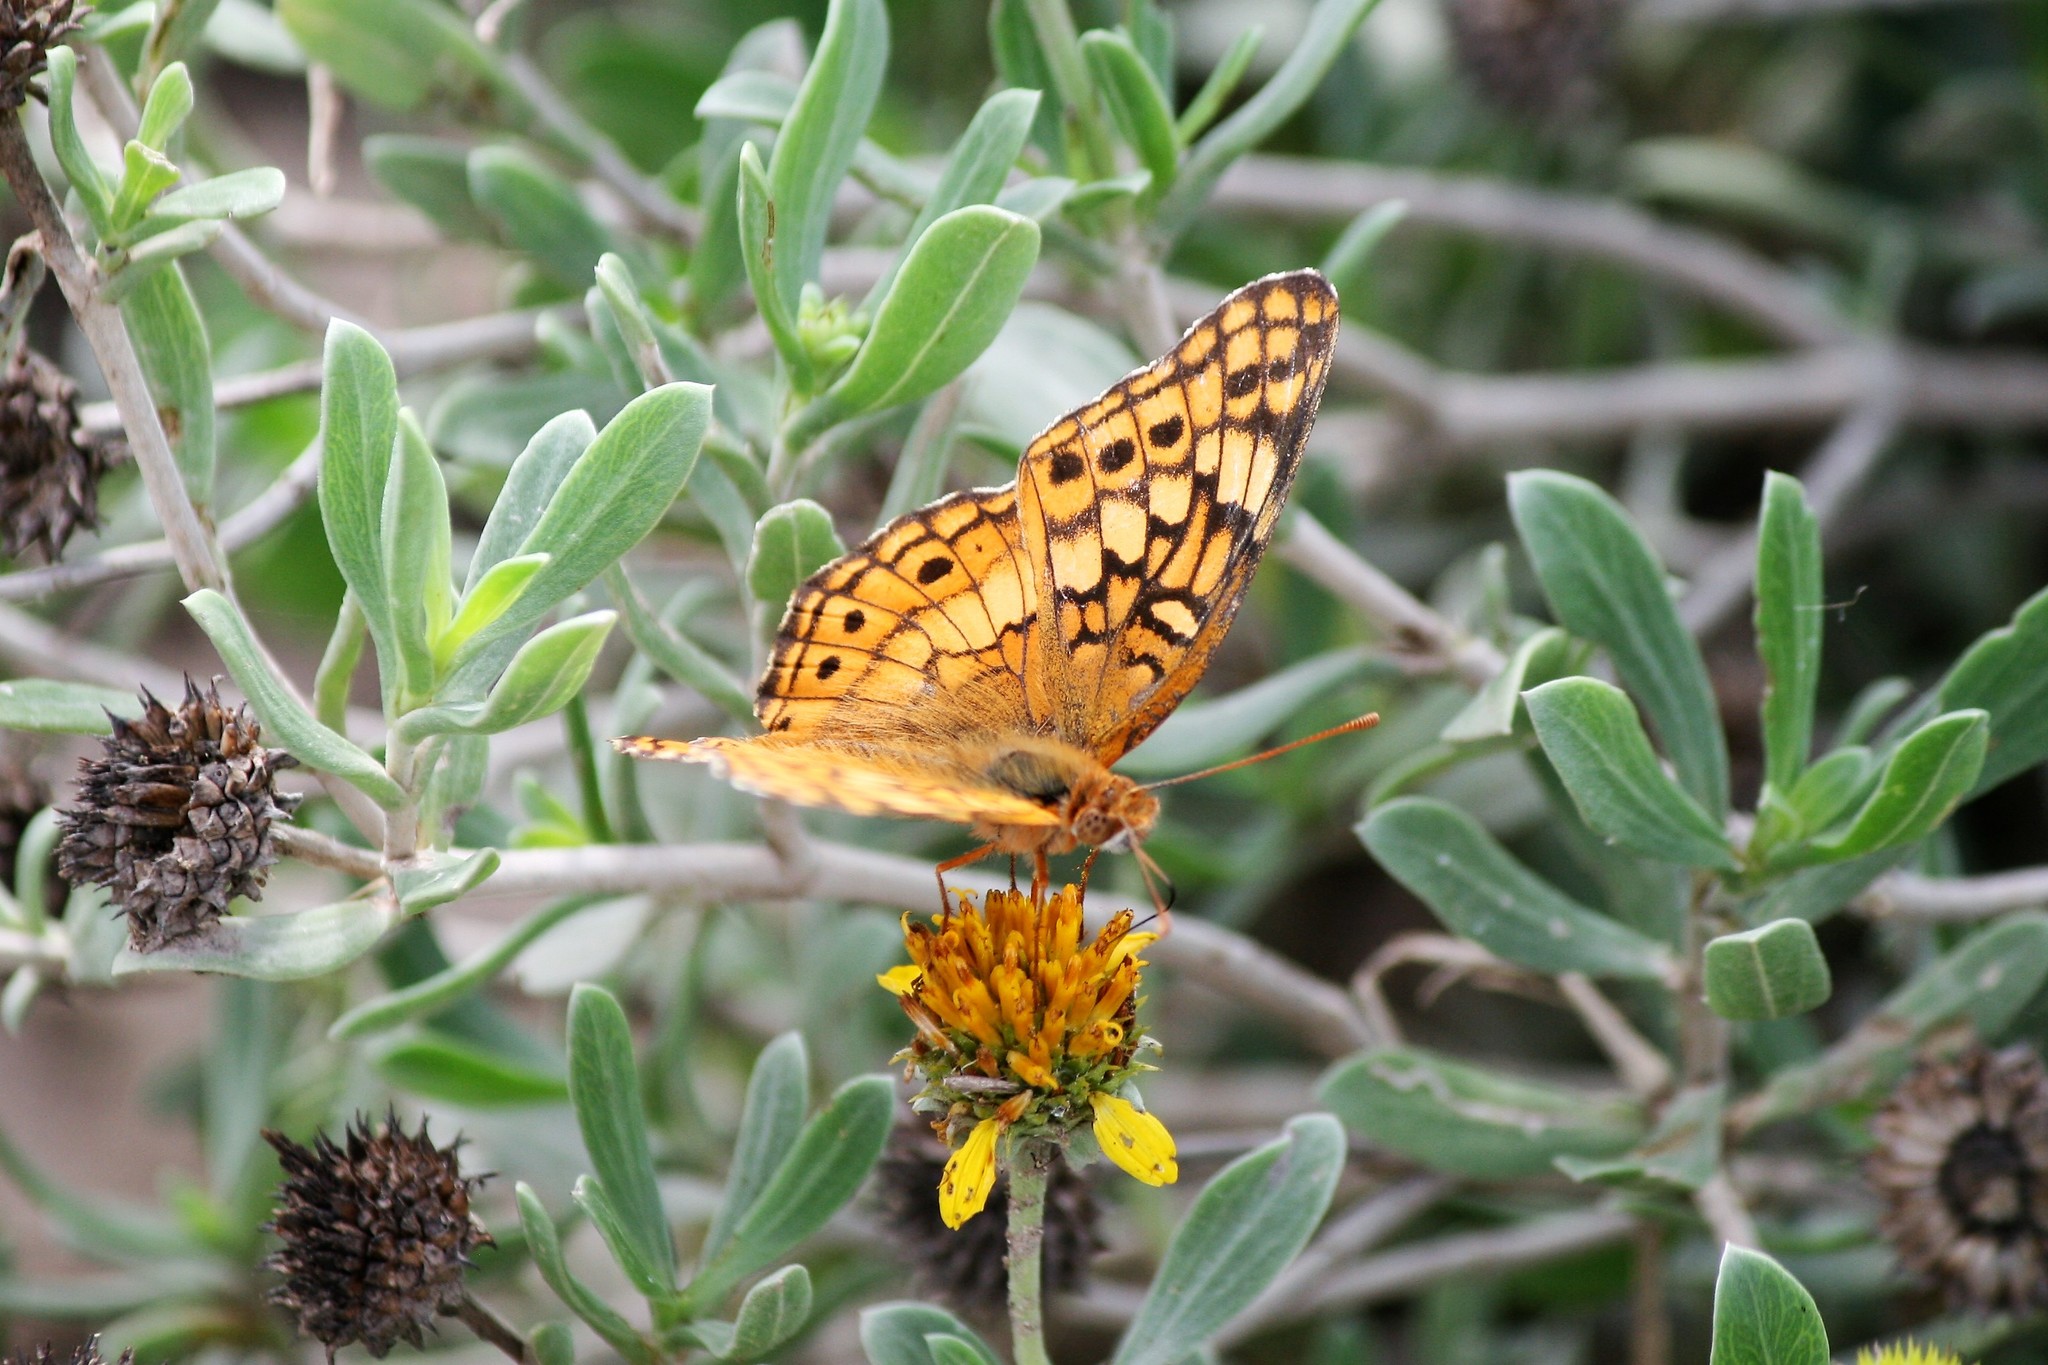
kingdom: Animalia
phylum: Arthropoda
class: Insecta
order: Lepidoptera
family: Nymphalidae
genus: Euptoieta
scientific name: Euptoieta claudia
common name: Variegated fritillary
